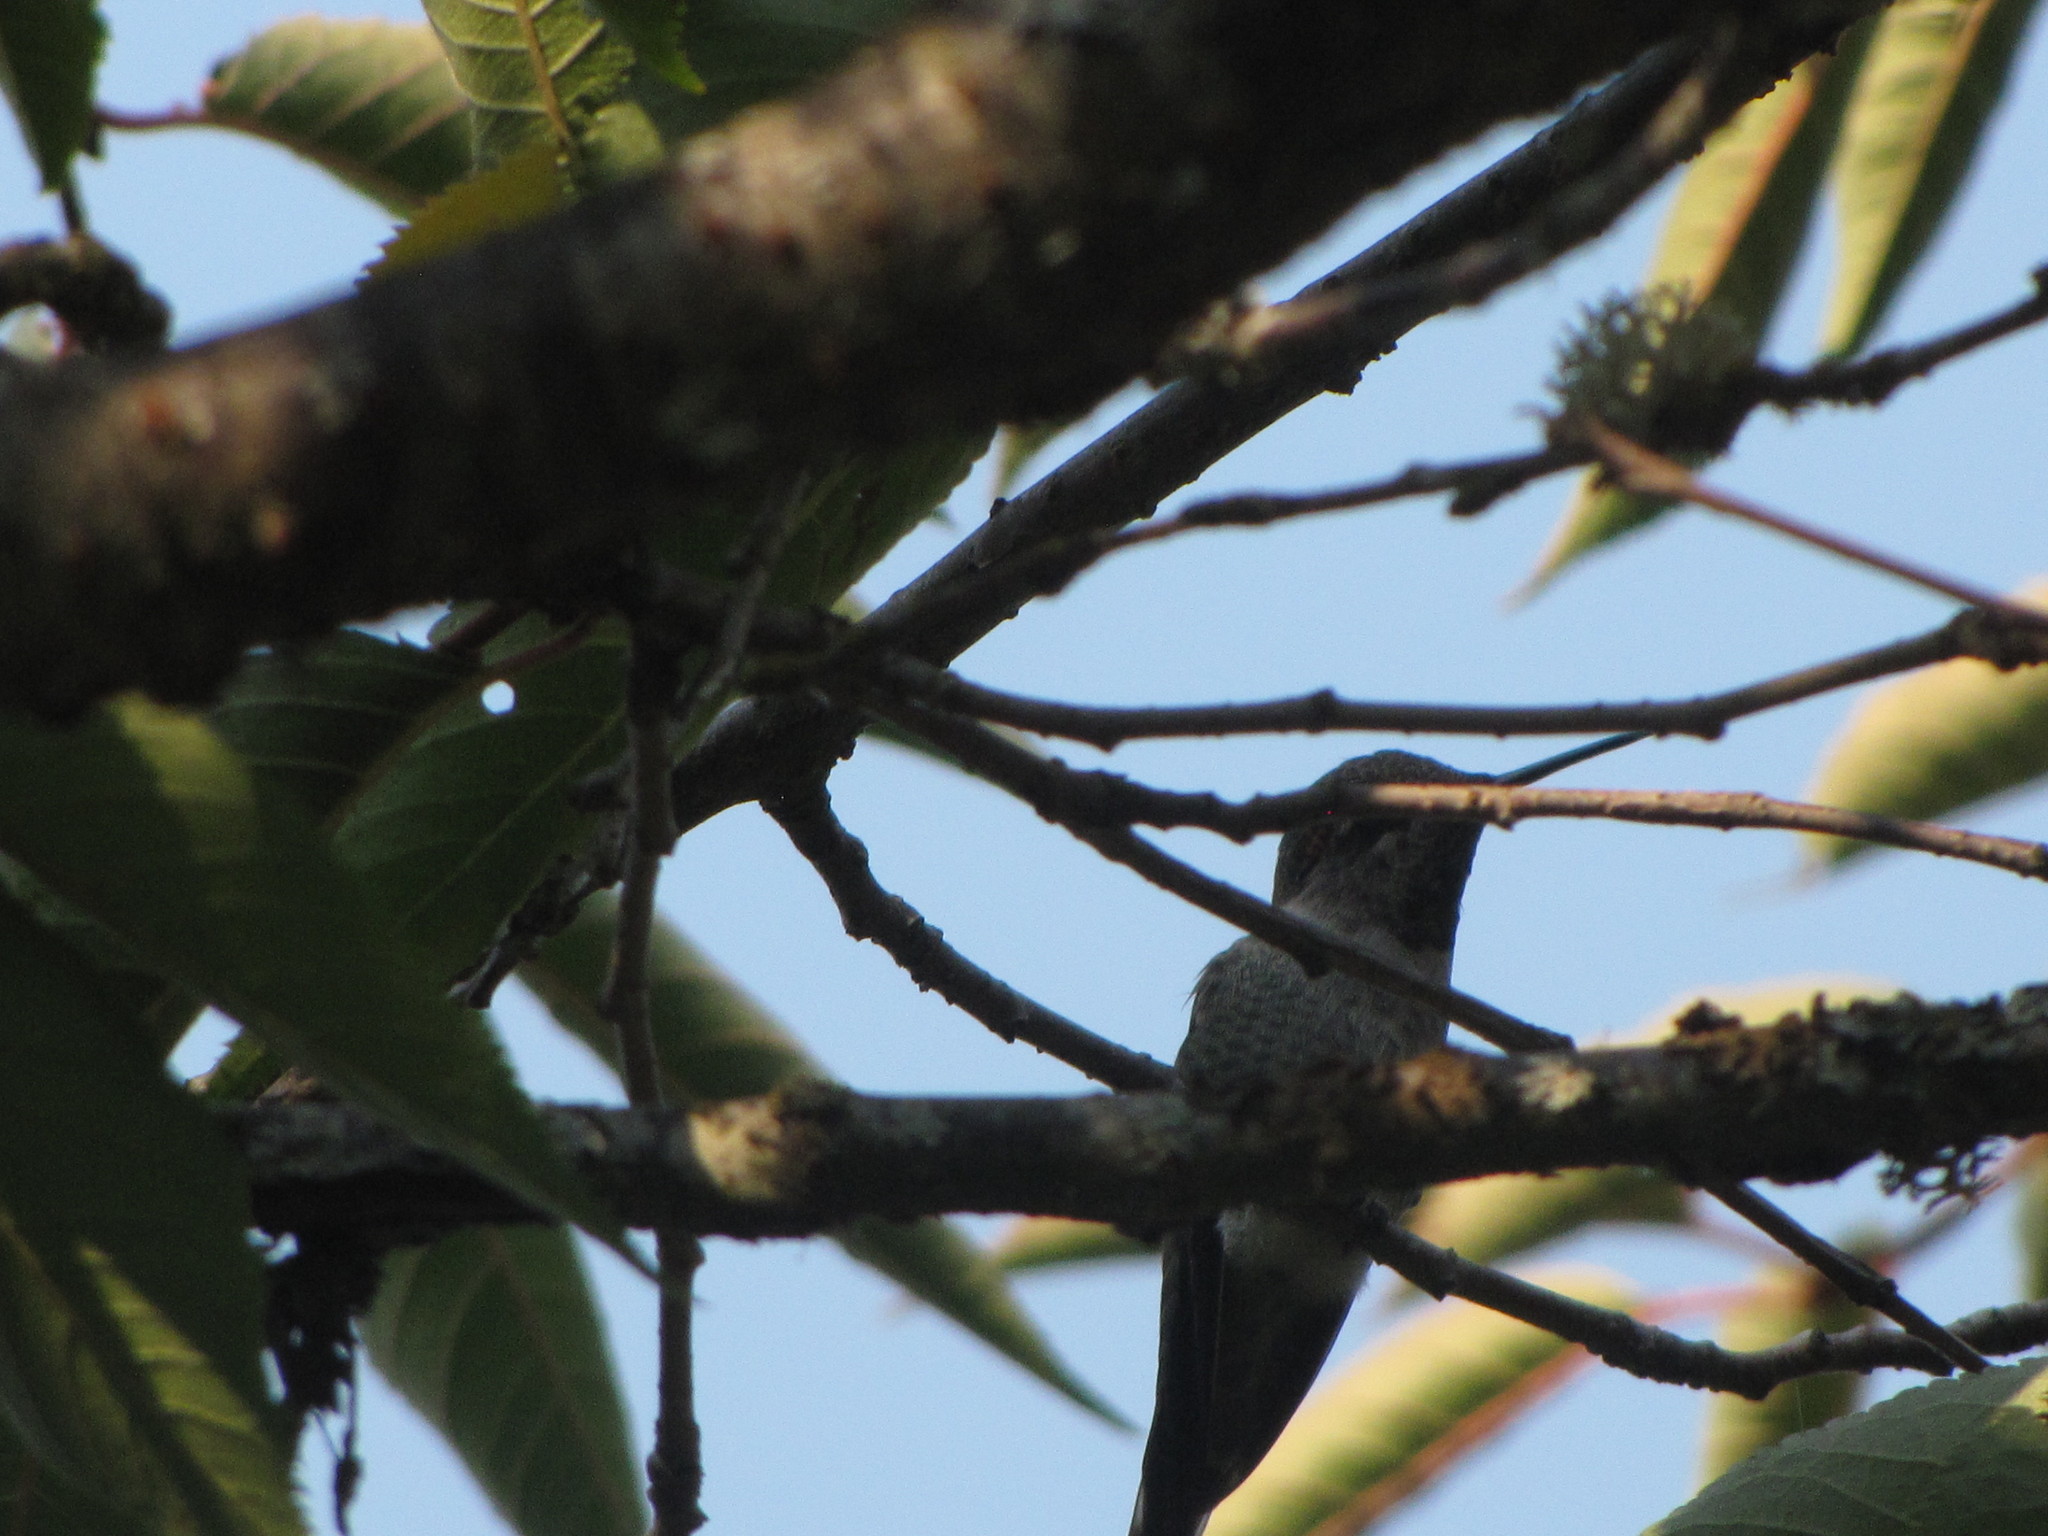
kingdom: Animalia
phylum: Chordata
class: Aves
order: Apodiformes
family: Trochilidae
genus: Calypte
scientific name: Calypte anna
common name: Anna's hummingbird
